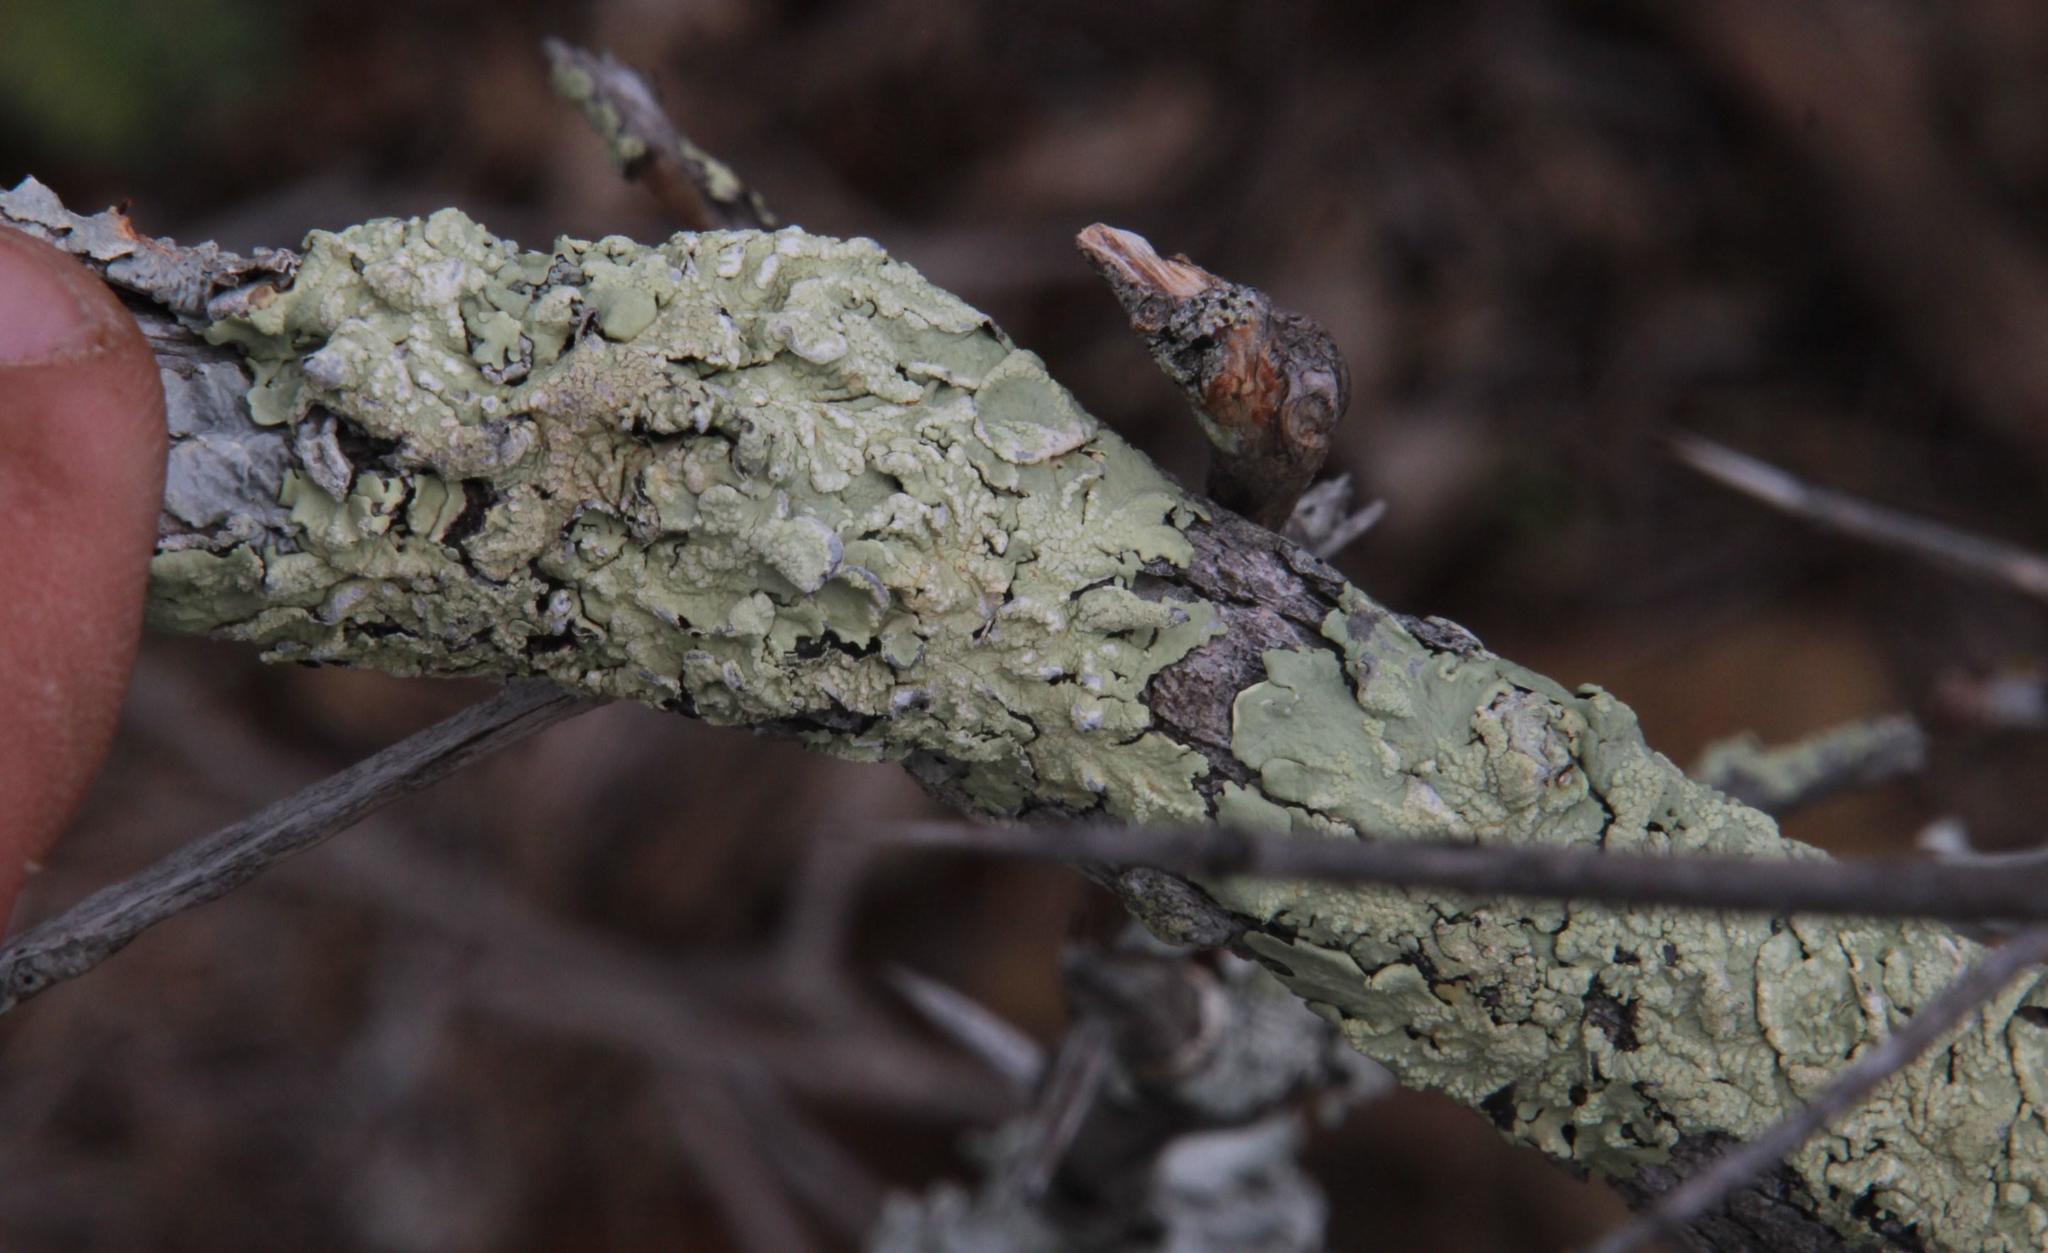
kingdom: Fungi
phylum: Ascomycota
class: Lecanoromycetes
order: Lecanorales
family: Parmeliaceae
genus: Flavoparmelia
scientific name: Flavoparmelia soredians
